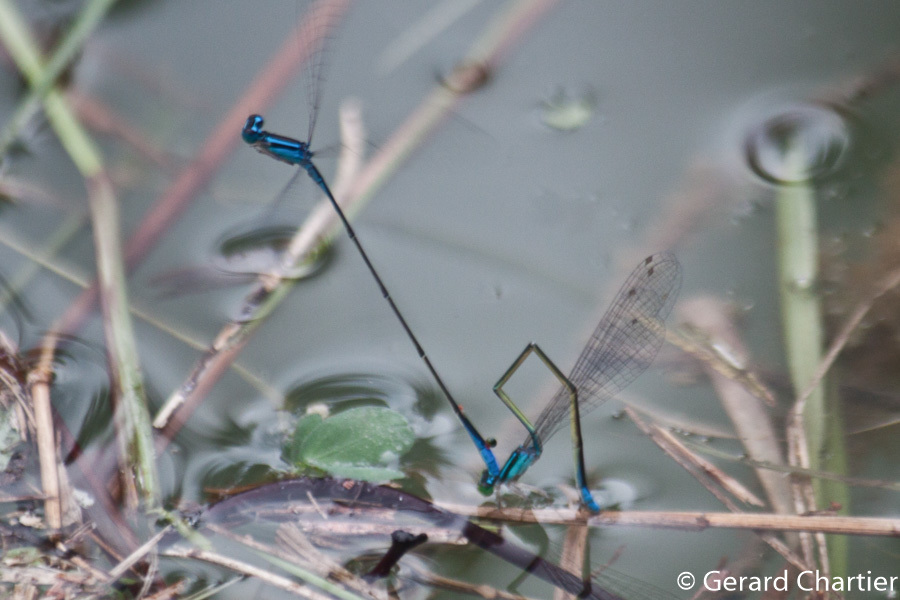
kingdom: Animalia
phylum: Arthropoda
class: Insecta
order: Odonata
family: Coenagrionidae
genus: Aciagrion
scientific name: Aciagrion hisopa
